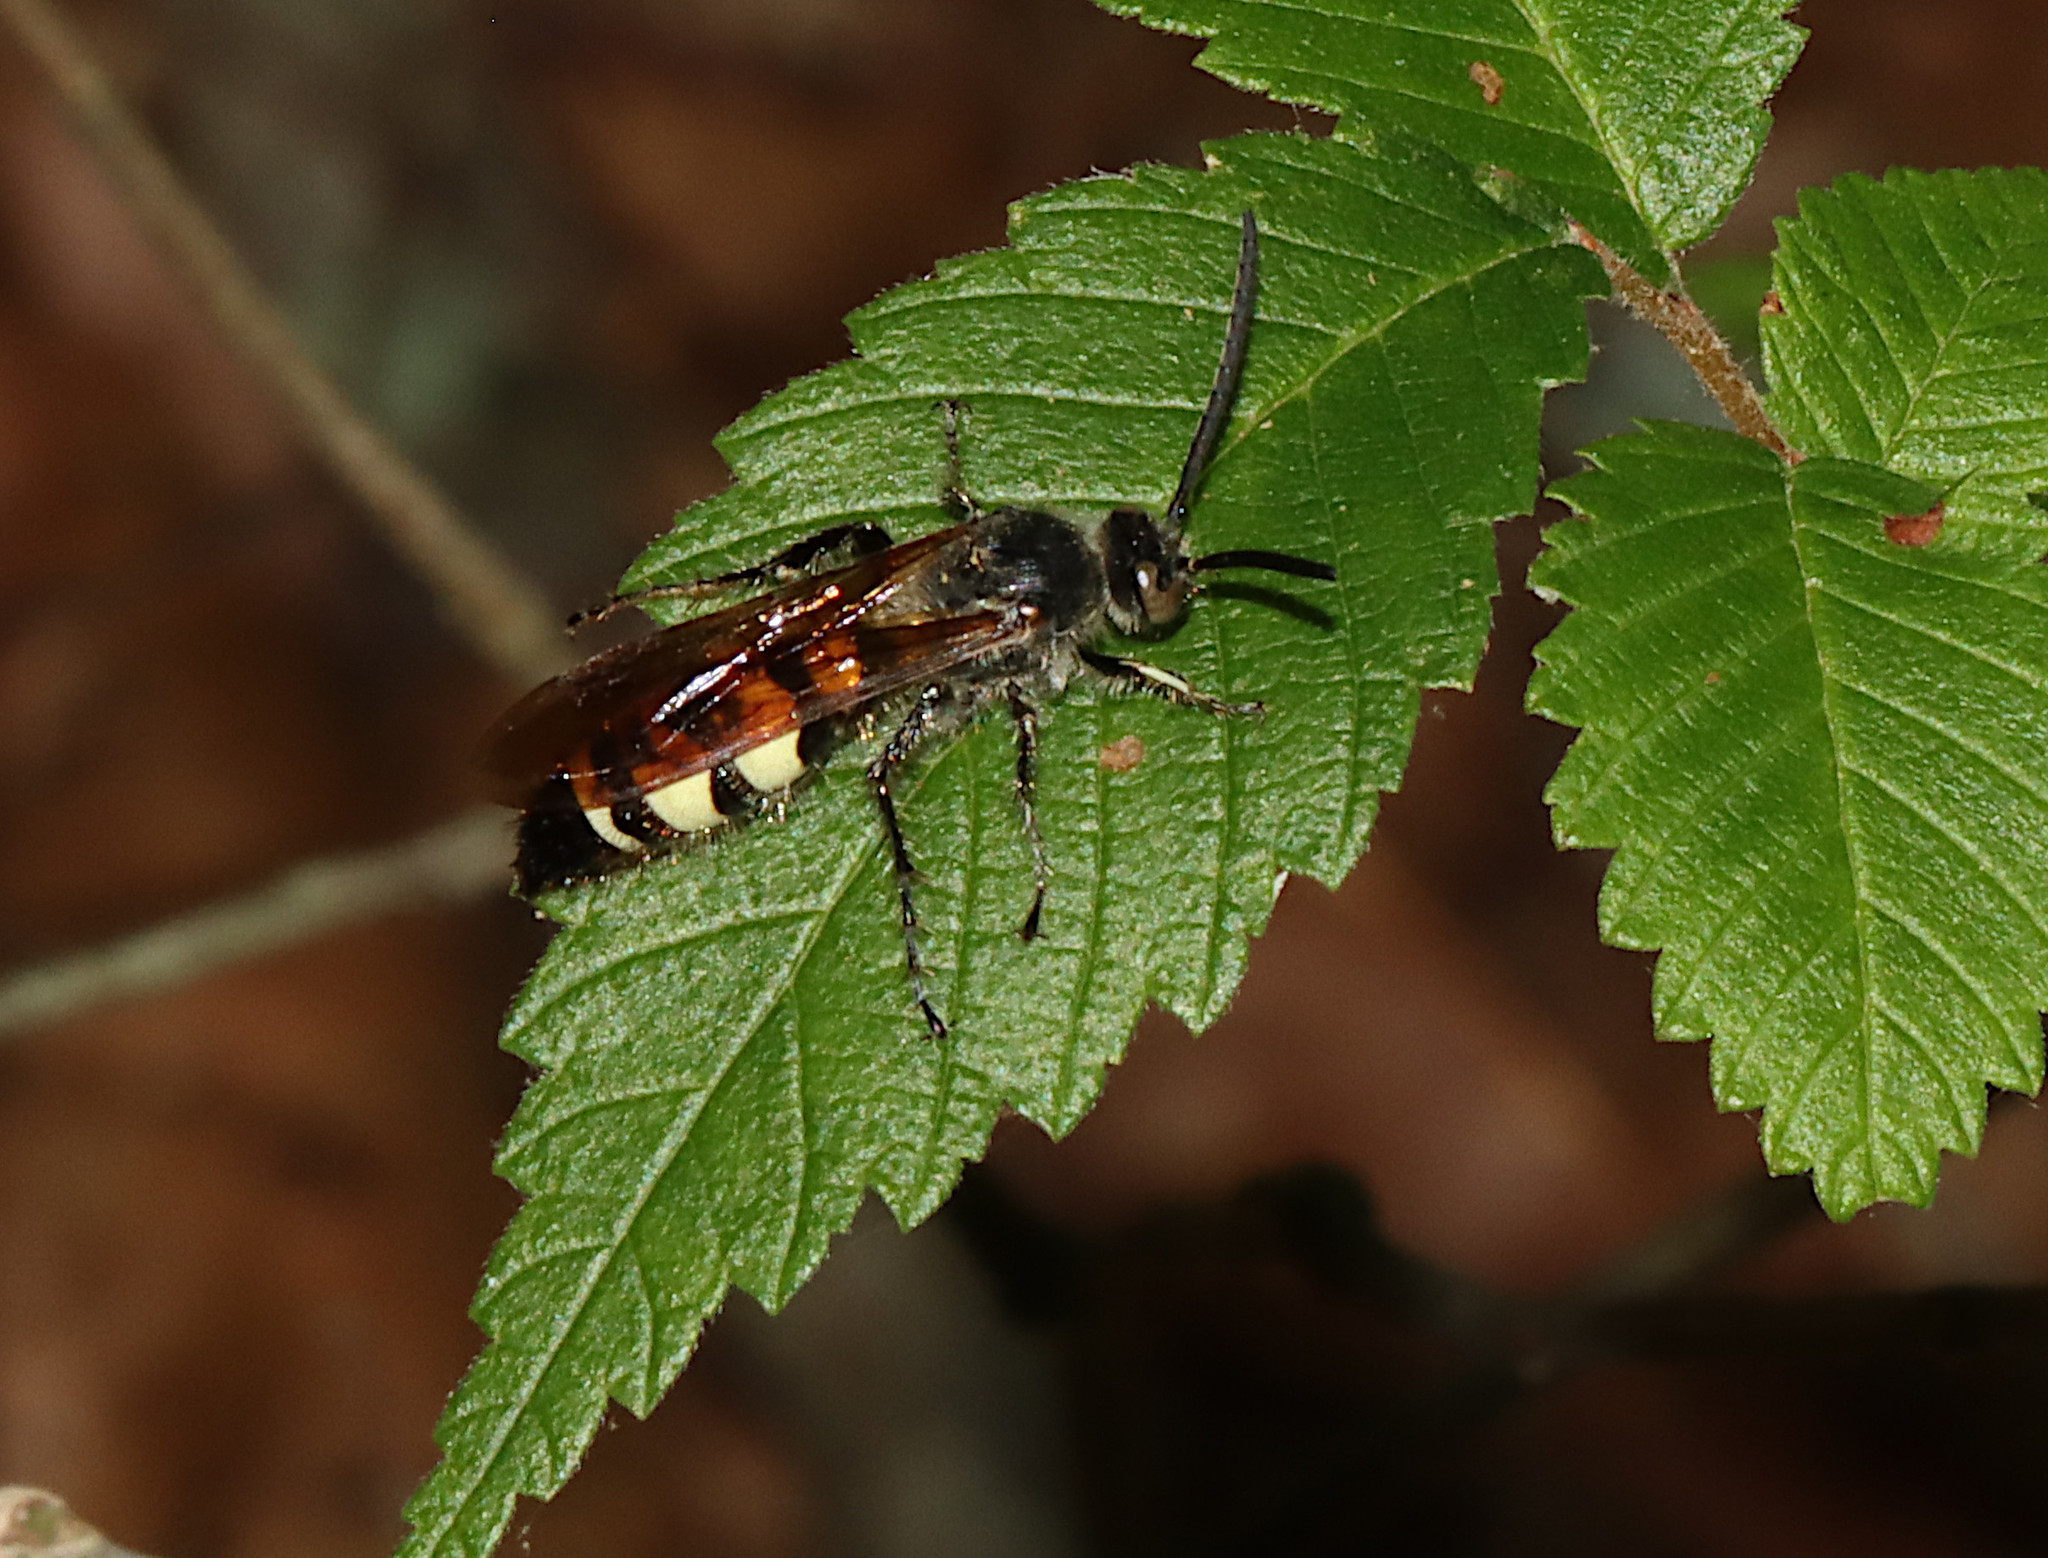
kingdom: Animalia
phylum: Arthropoda
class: Insecta
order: Hymenoptera
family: Scoliidae
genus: Dielis
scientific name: Dielis
